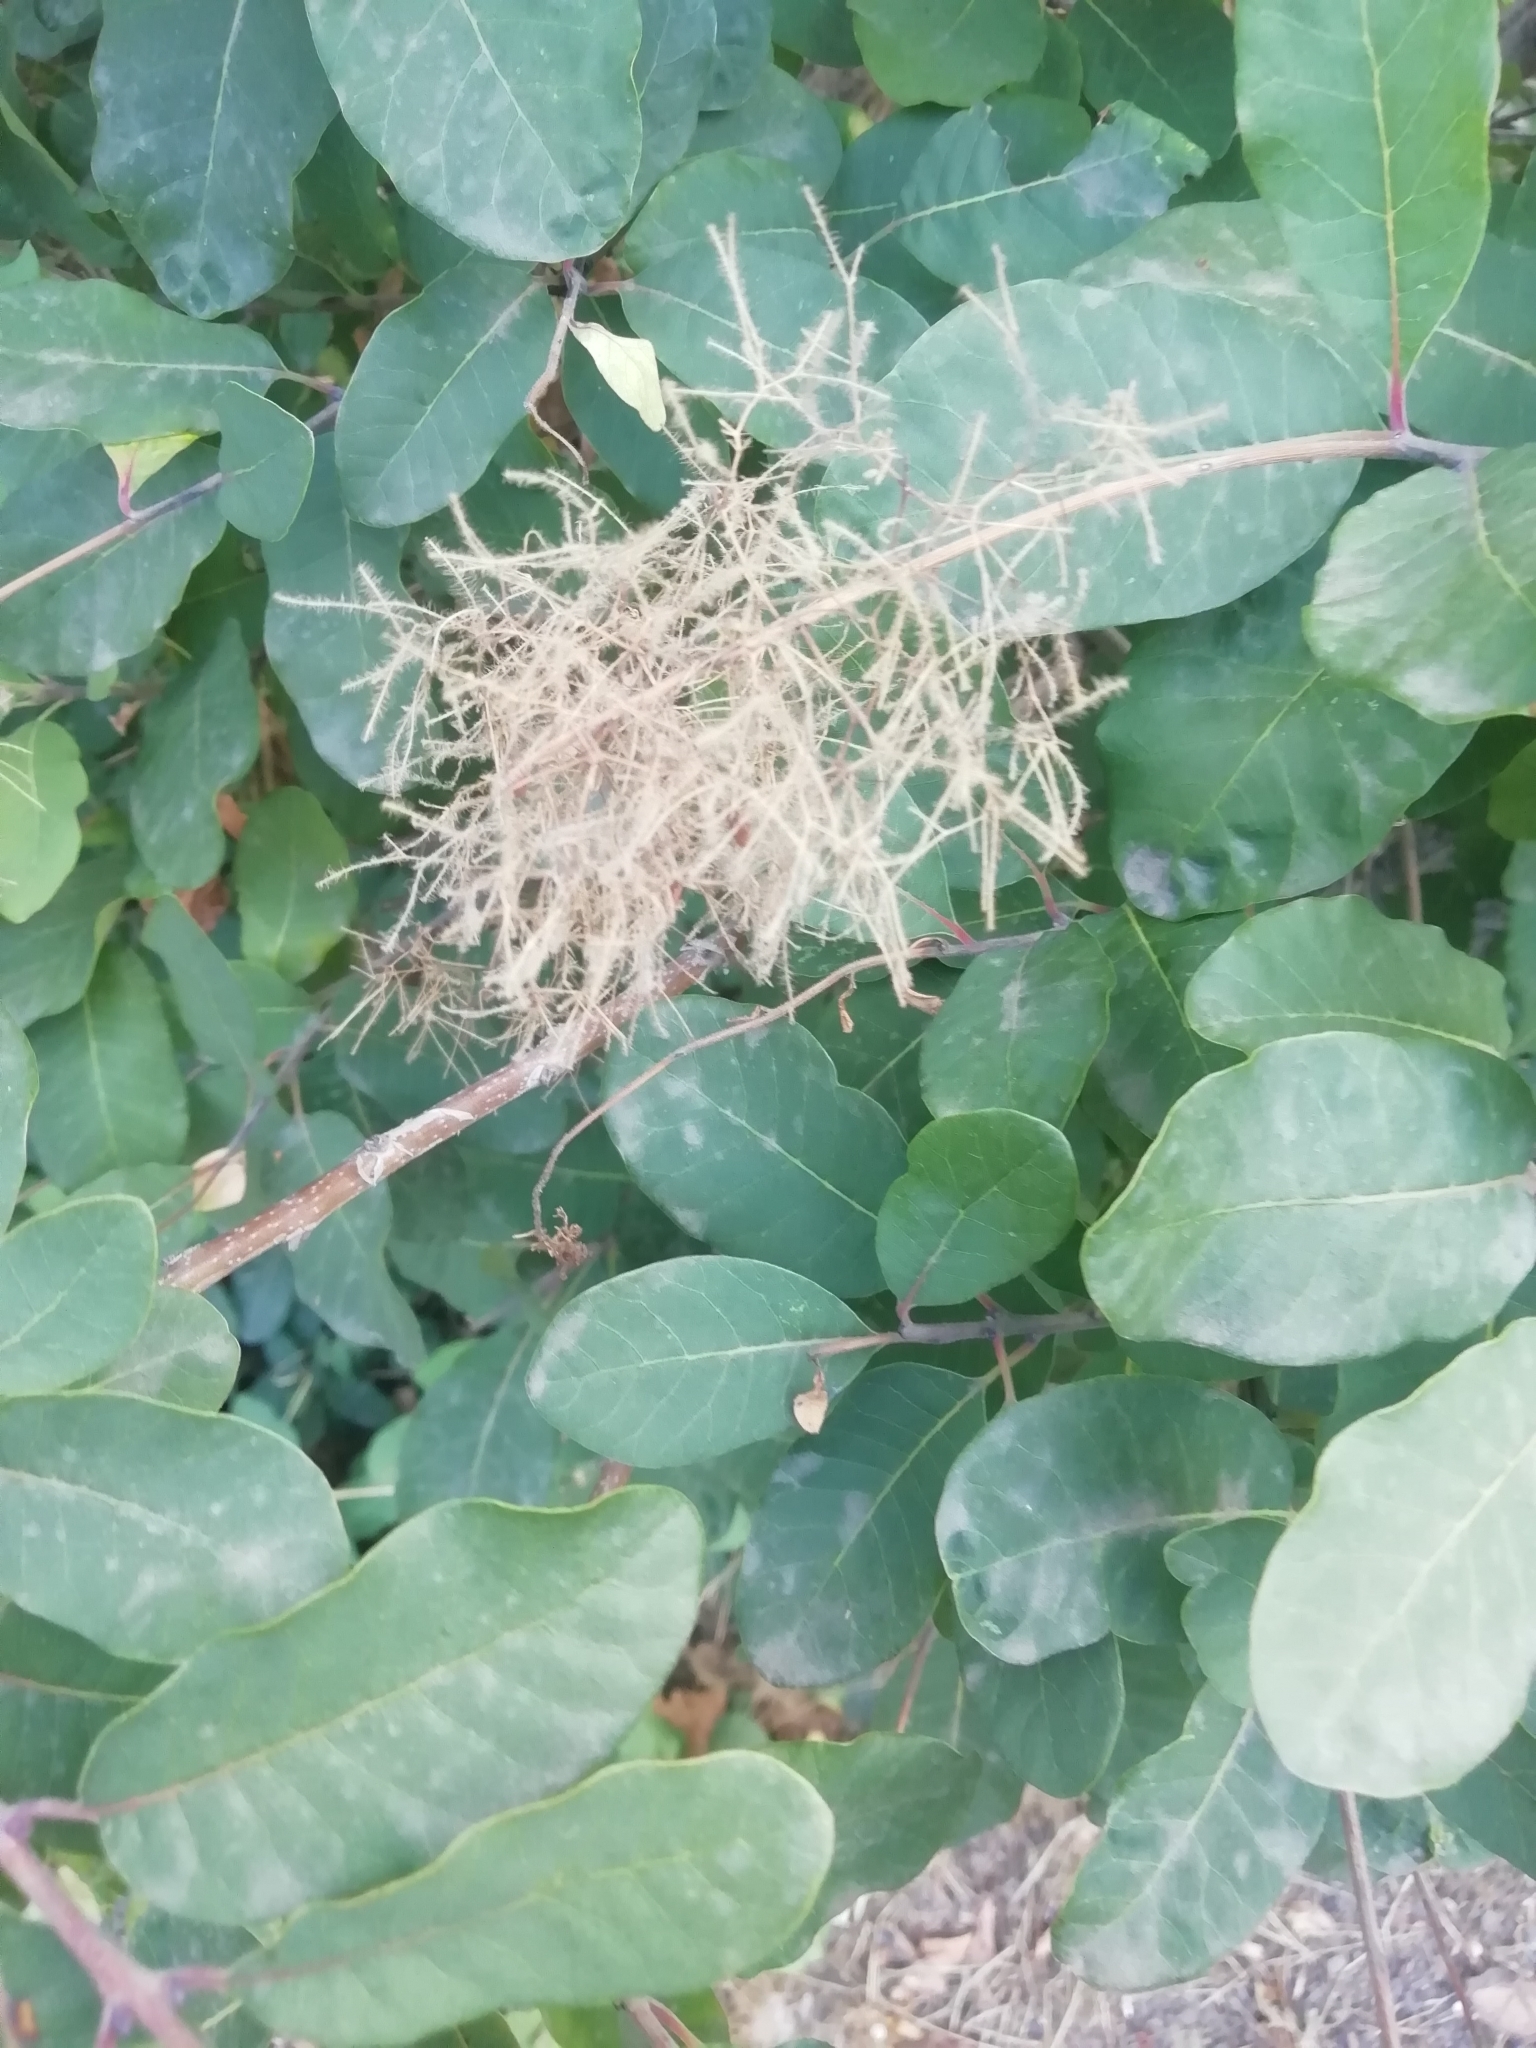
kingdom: Plantae
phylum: Tracheophyta
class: Magnoliopsida
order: Sapindales
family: Anacardiaceae
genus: Cotinus
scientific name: Cotinus coggygria
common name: Smoke-tree
